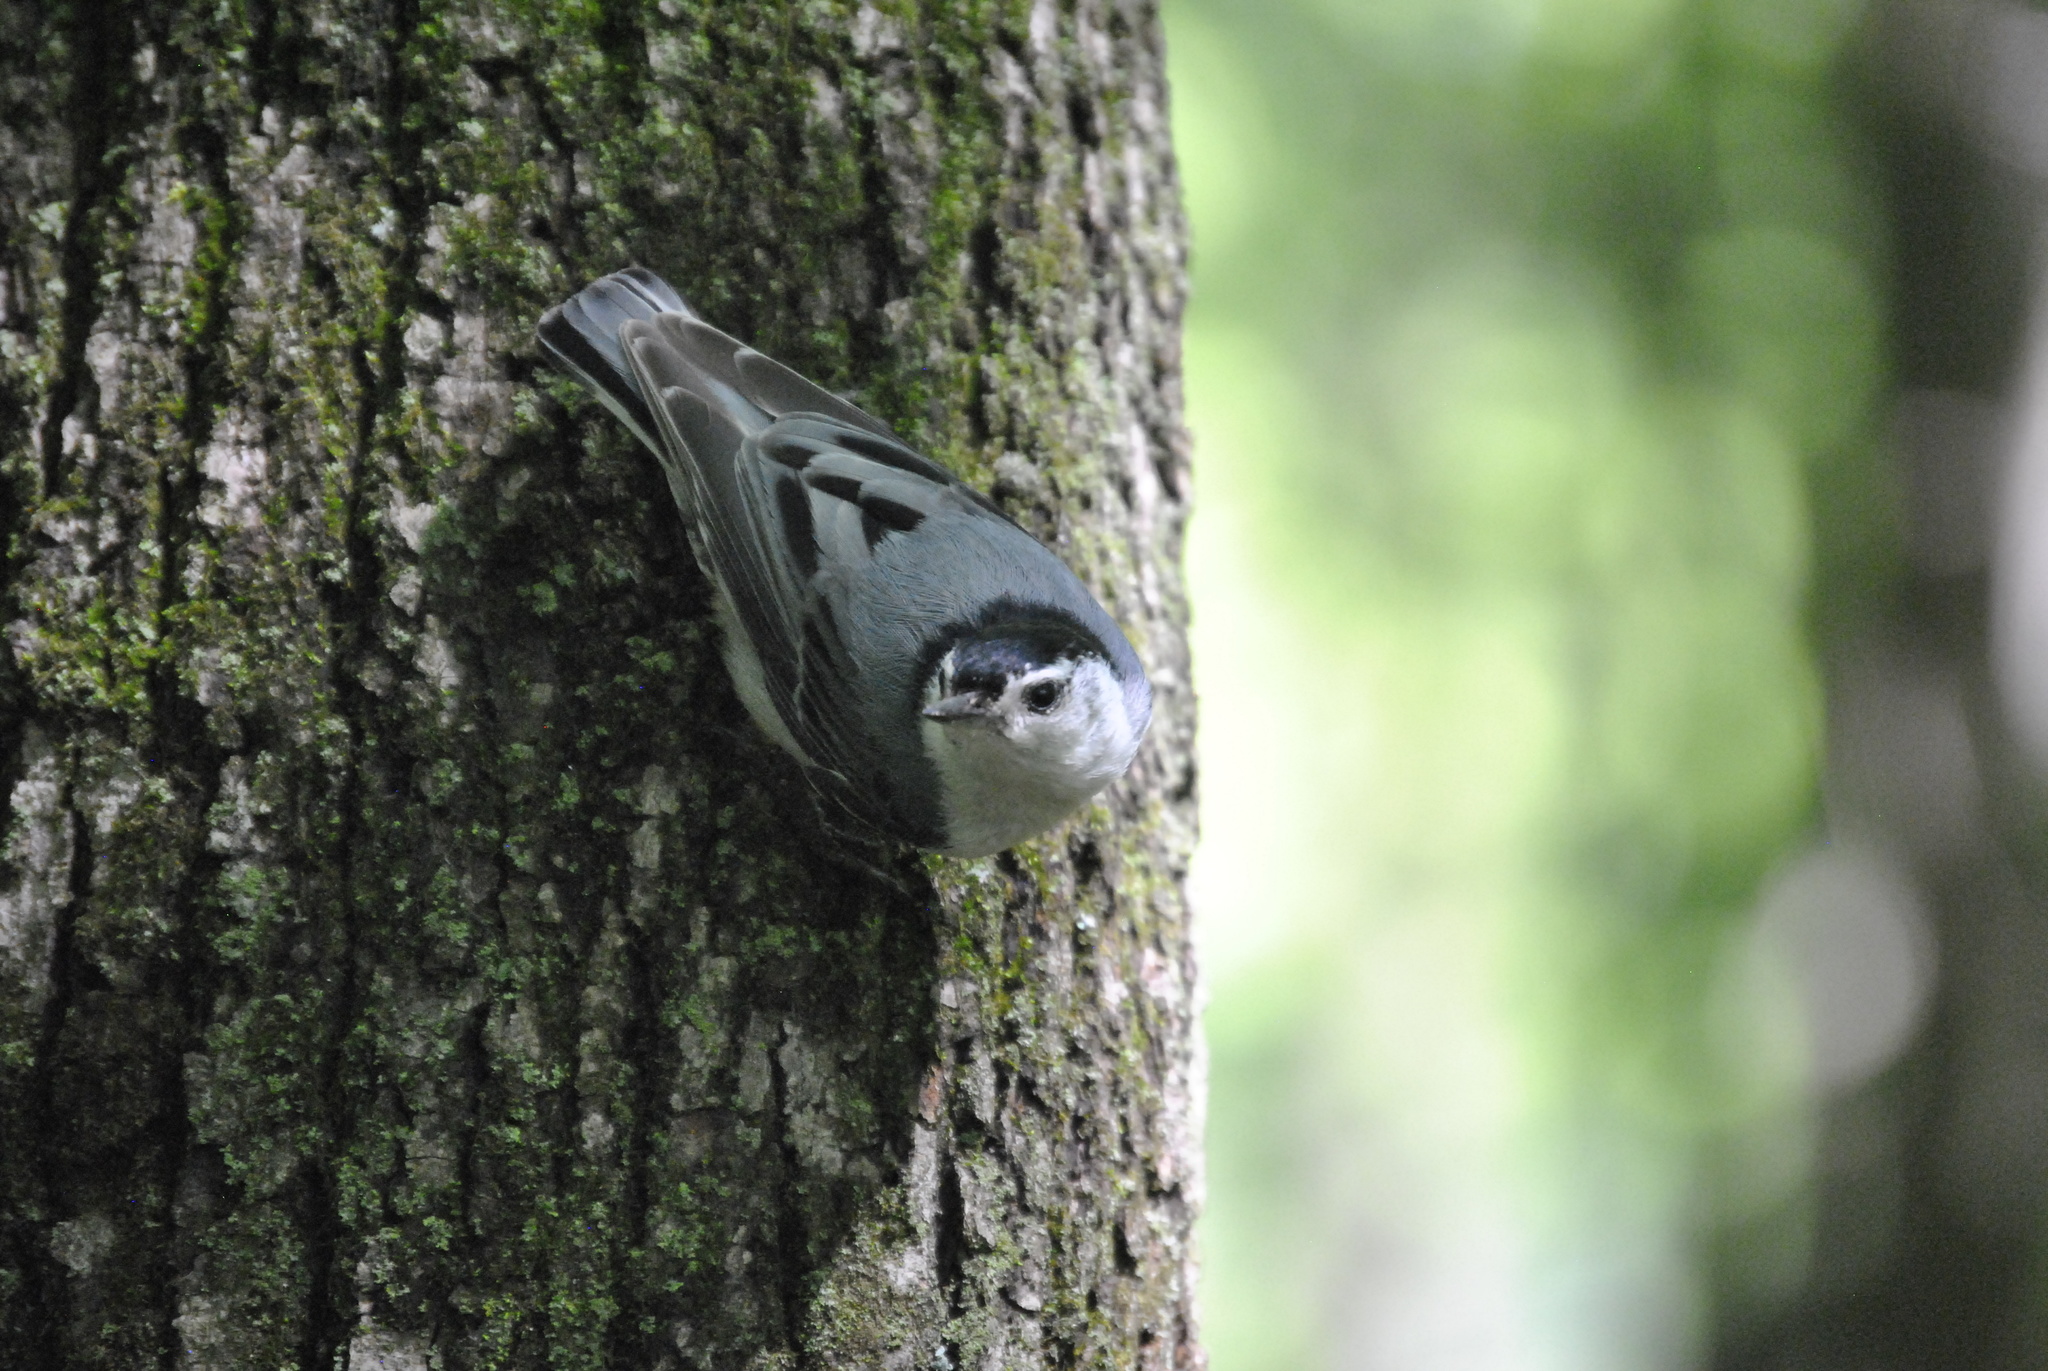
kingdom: Animalia
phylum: Chordata
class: Aves
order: Passeriformes
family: Sittidae
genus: Sitta
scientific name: Sitta carolinensis
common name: White-breasted nuthatch
